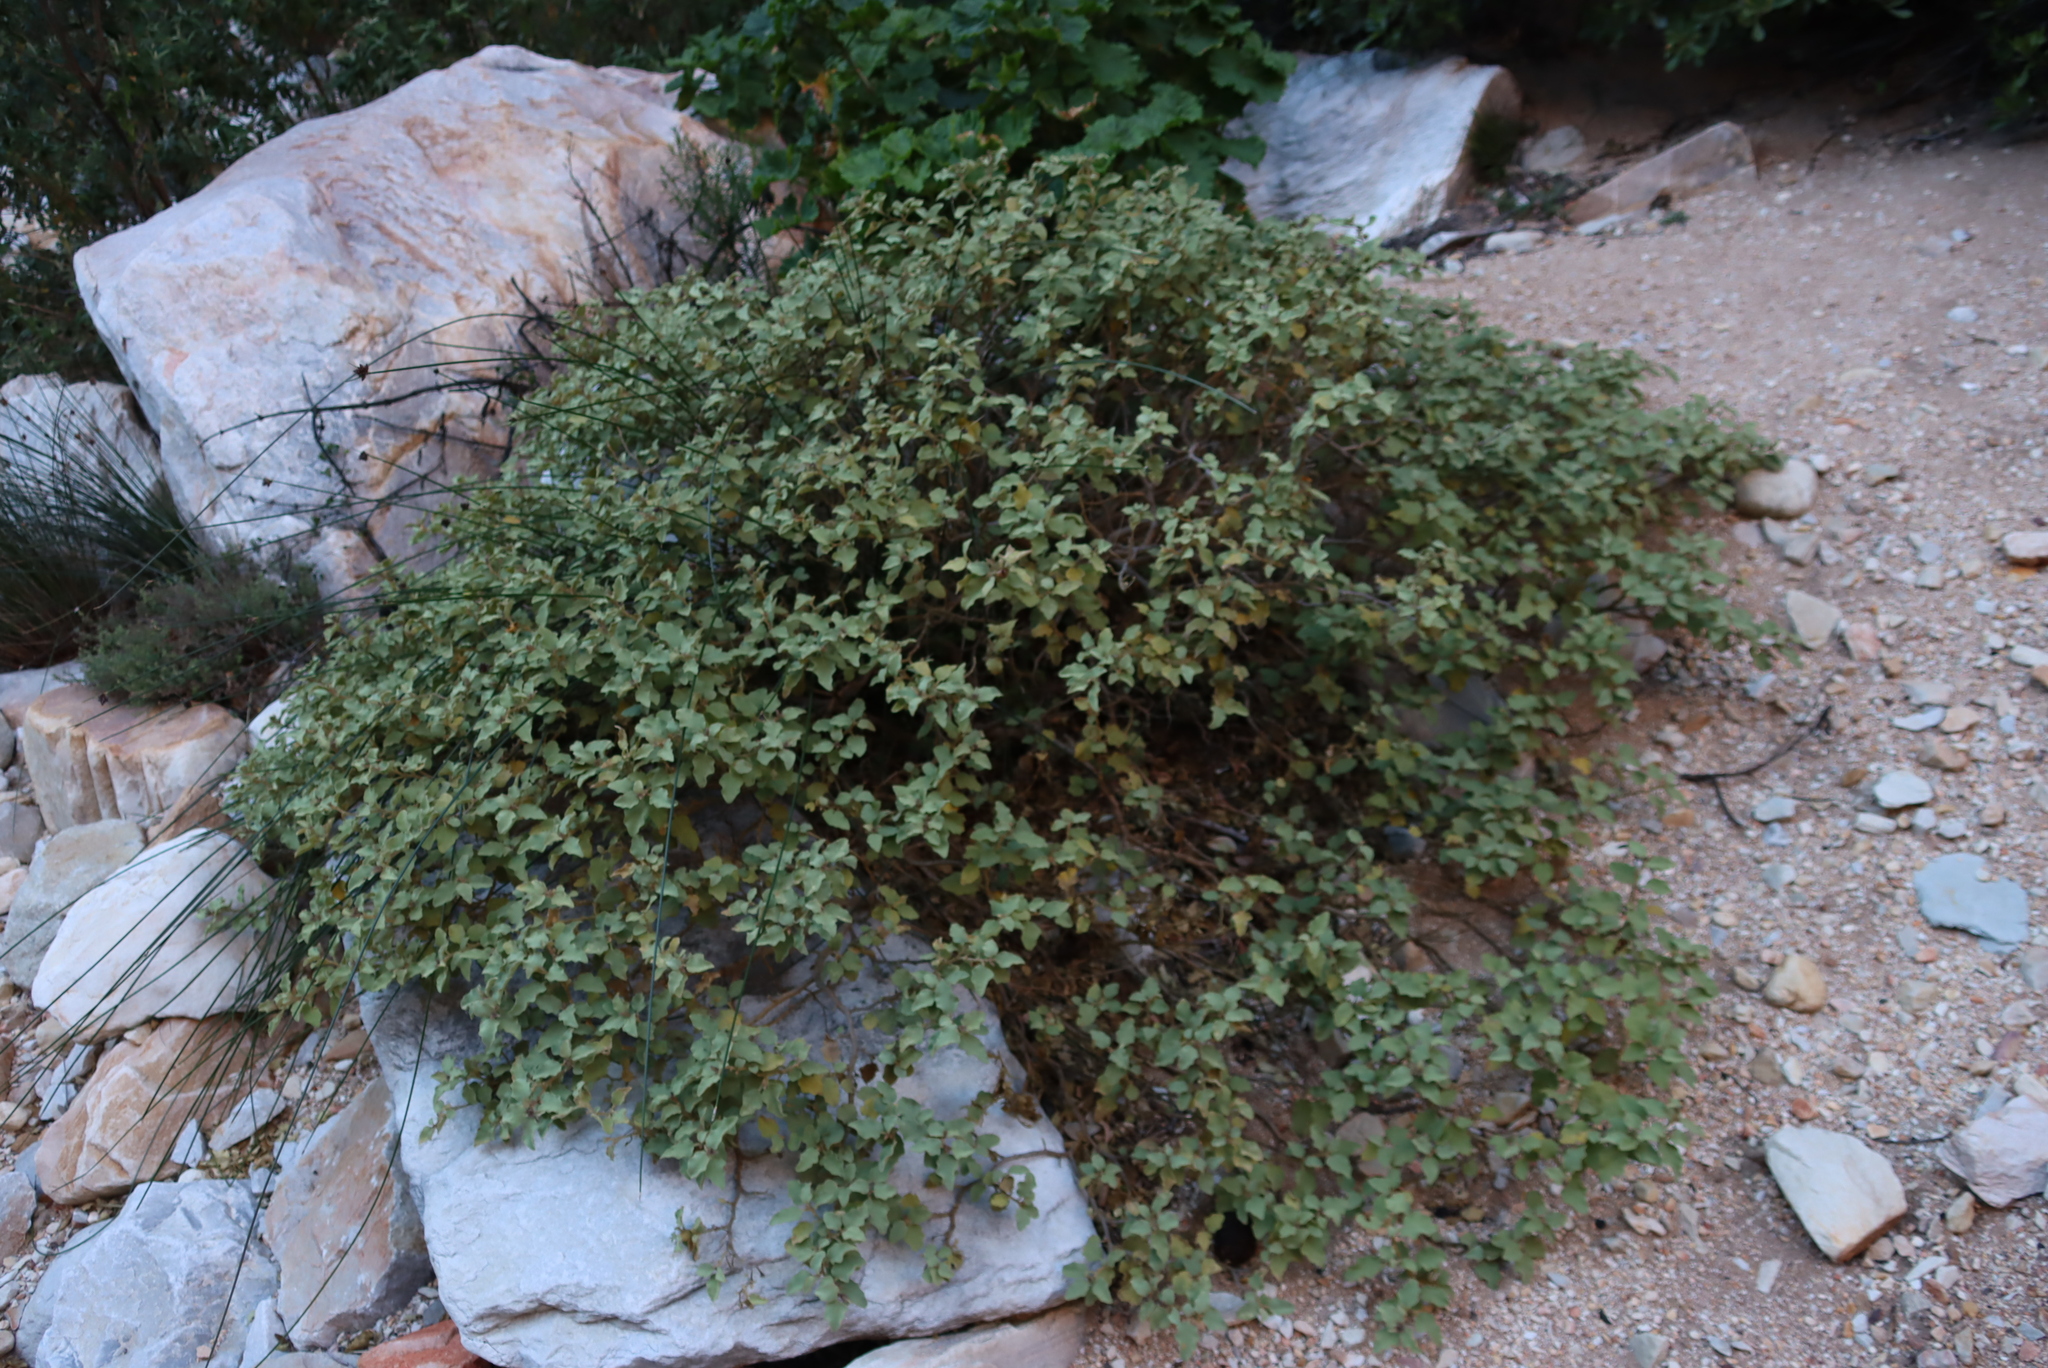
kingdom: Plantae
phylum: Tracheophyta
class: Magnoliopsida
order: Solanales
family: Solanaceae
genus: Solanum
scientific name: Solanum tomentosum
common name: Wild aubergine
